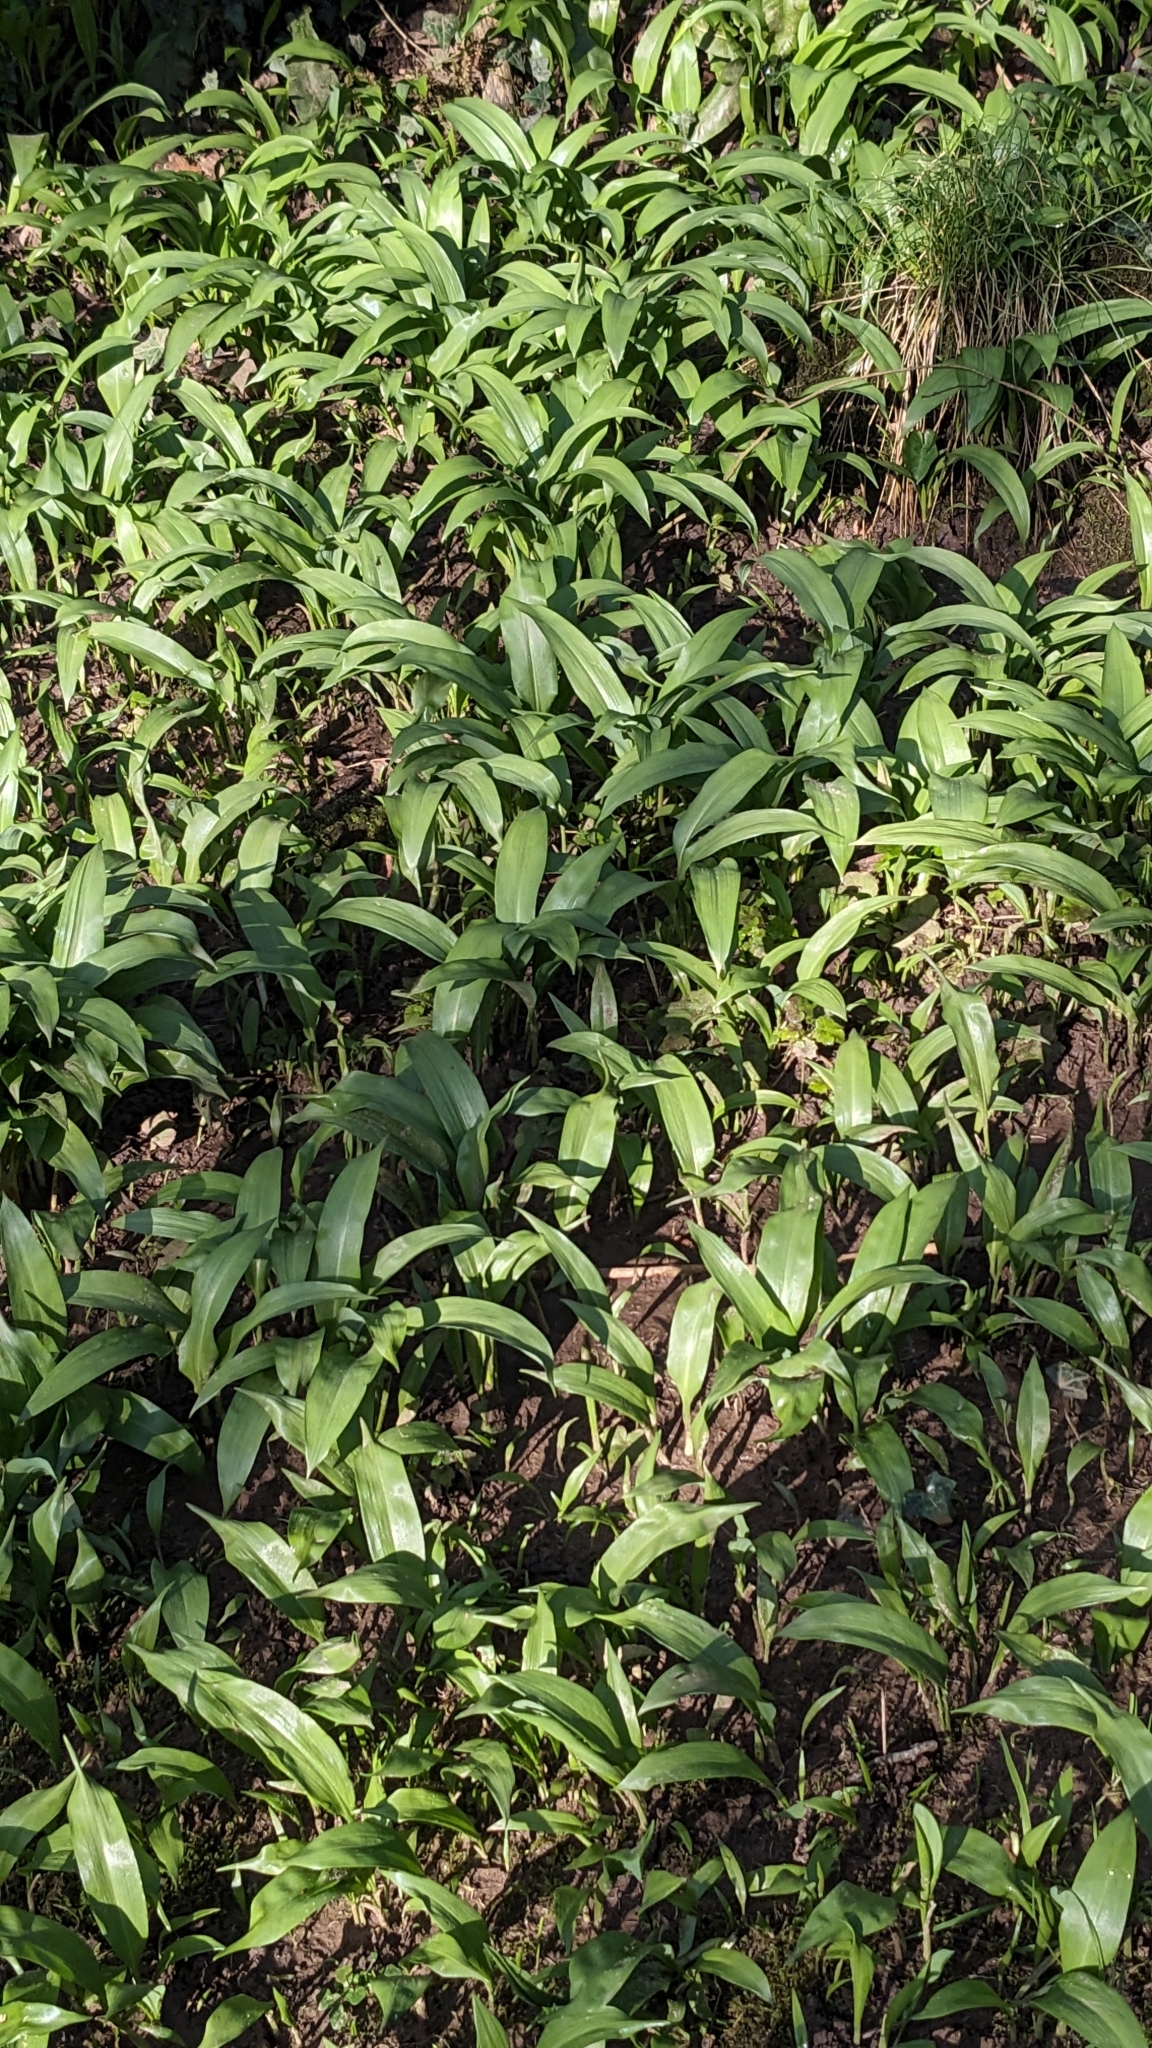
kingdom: Plantae
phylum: Tracheophyta
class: Liliopsida
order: Asparagales
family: Amaryllidaceae
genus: Allium
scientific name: Allium ursinum
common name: Ramsons
